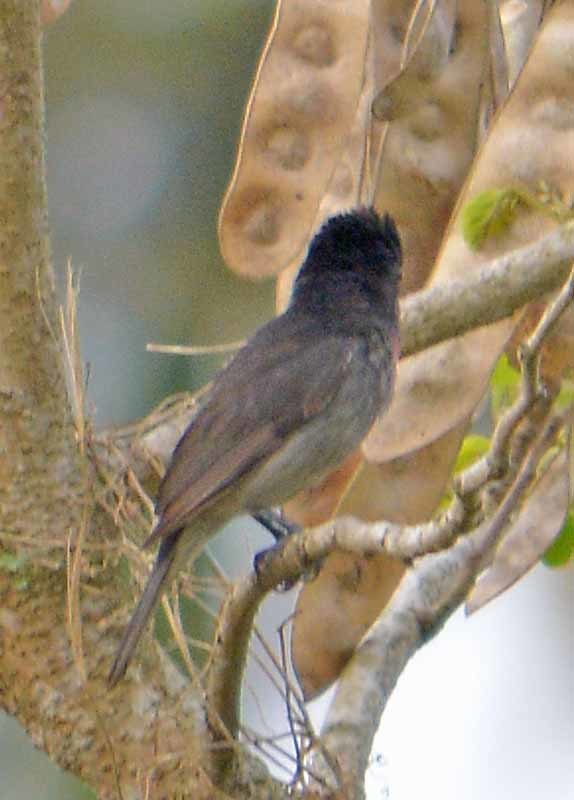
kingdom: Animalia
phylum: Chordata
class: Aves
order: Passeriformes
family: Cotingidae
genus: Pachyramphus
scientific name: Pachyramphus aglaiae
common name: Rose-throated becard
